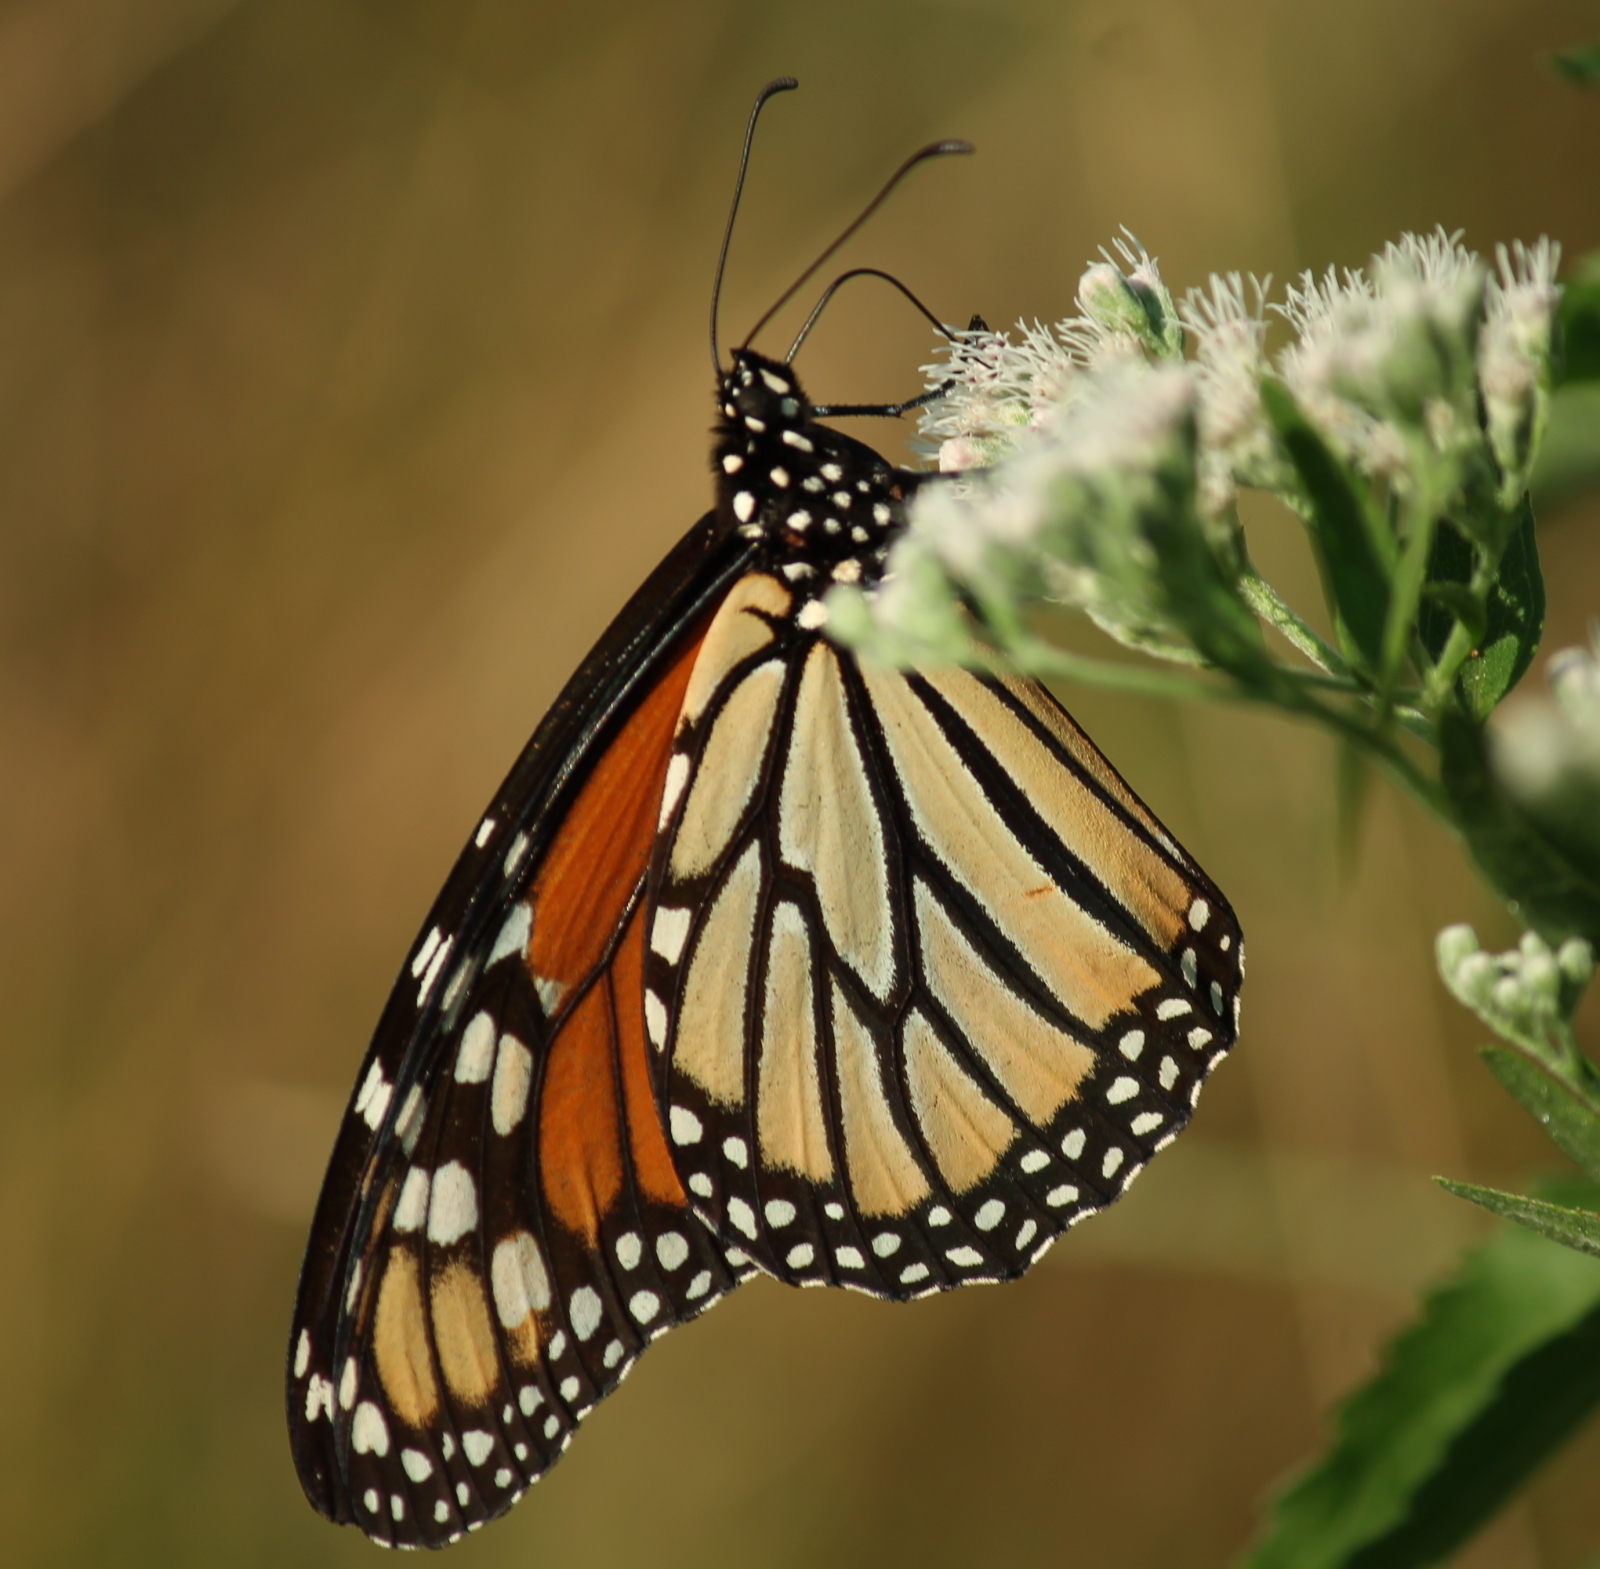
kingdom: Animalia
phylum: Arthropoda
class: Insecta
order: Lepidoptera
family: Nymphalidae
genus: Danaus
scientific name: Danaus plexippus
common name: Monarch
